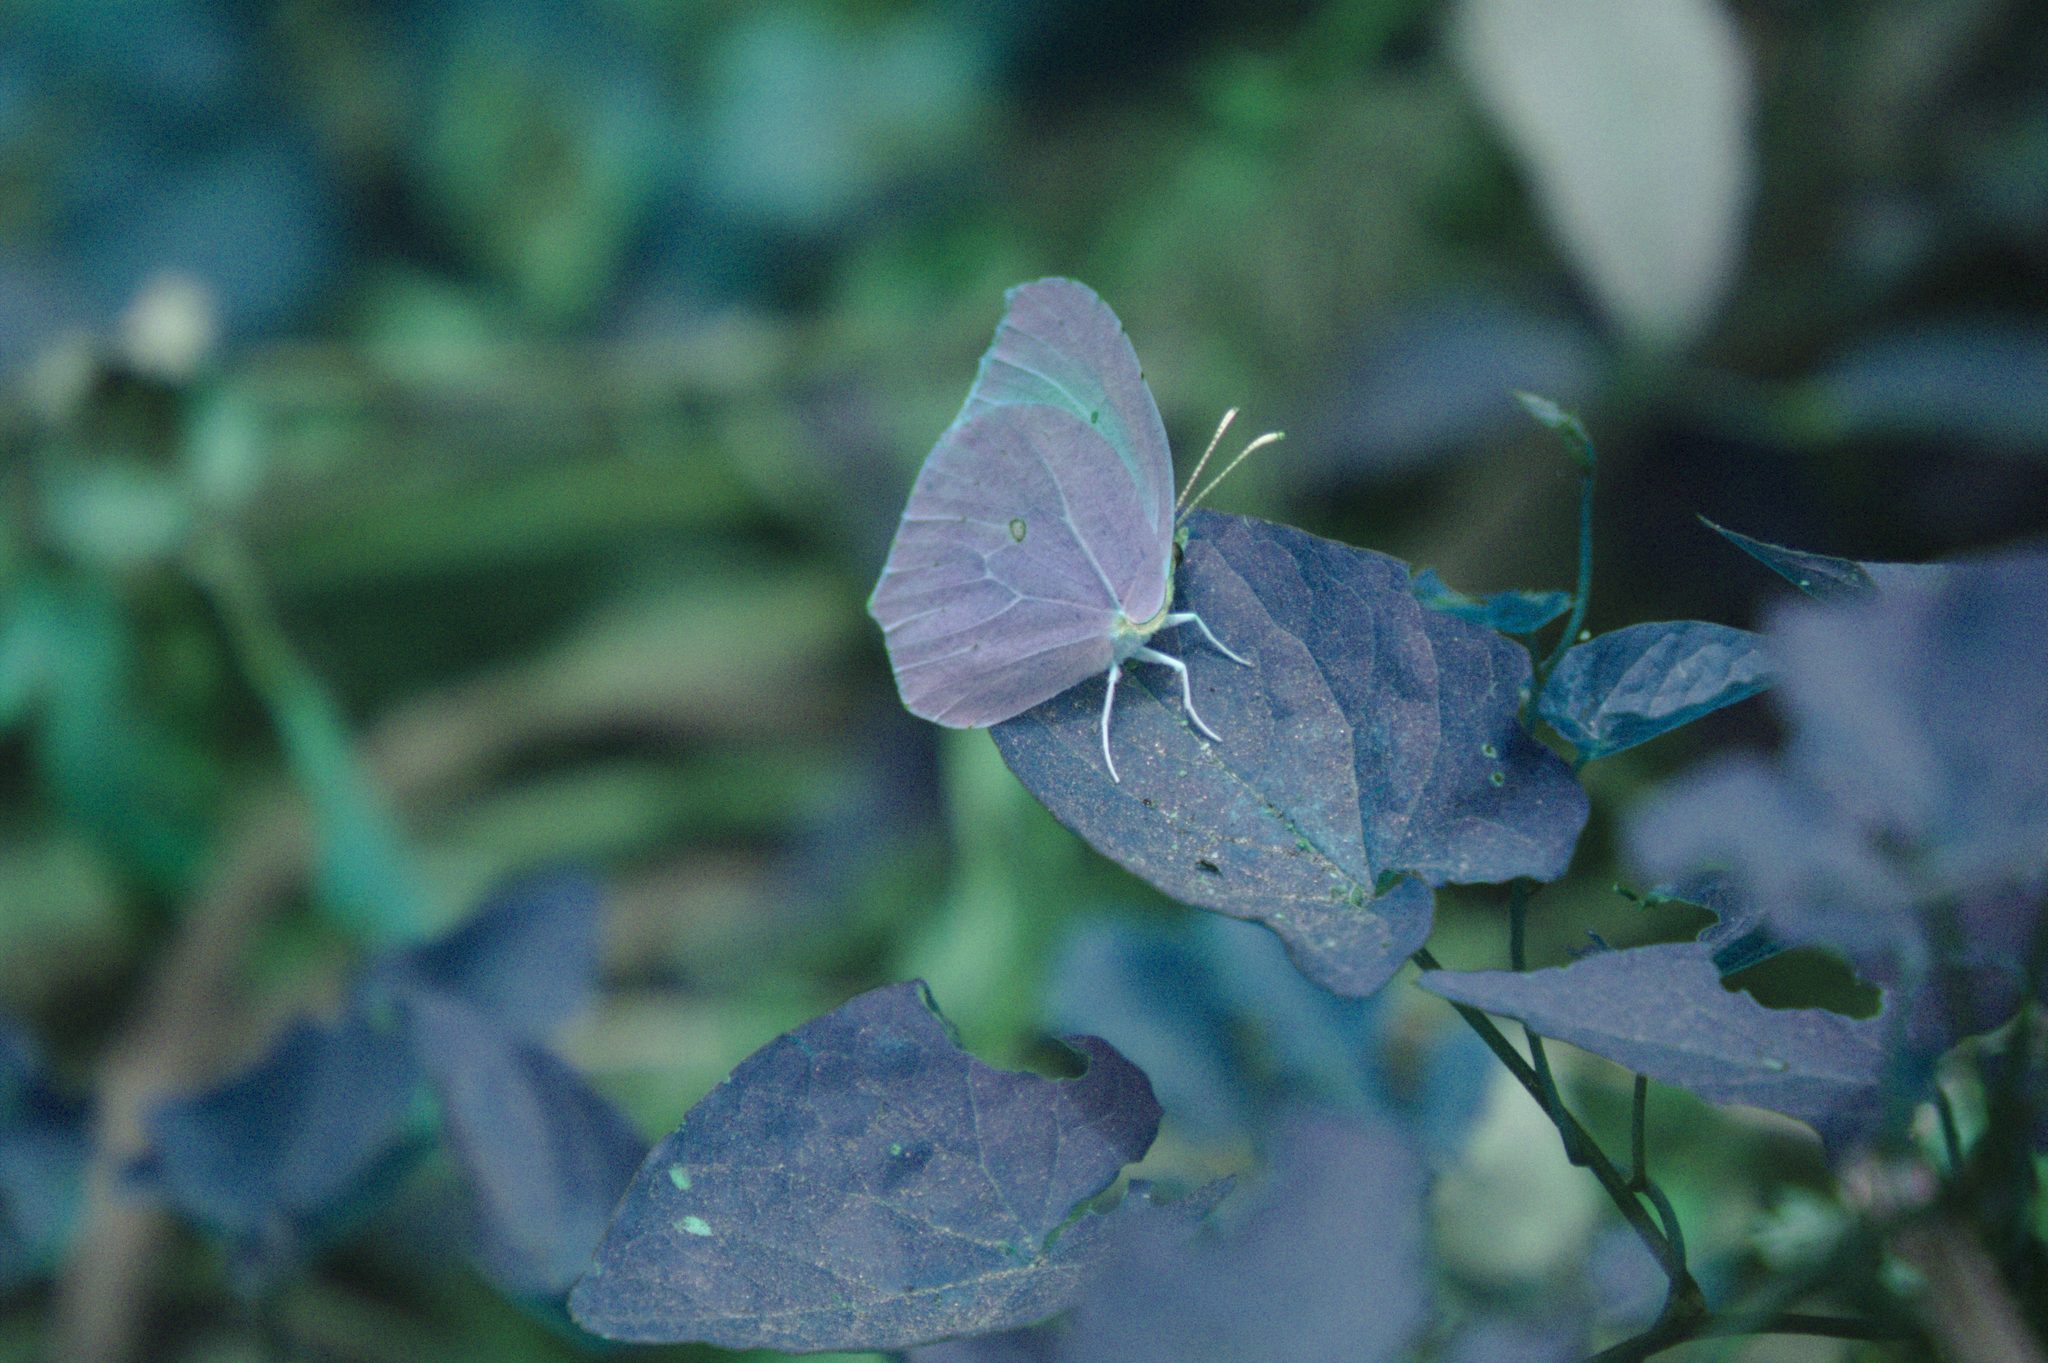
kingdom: Animalia
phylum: Arthropoda
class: Insecta
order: Lepidoptera
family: Pieridae
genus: Gonepteryx
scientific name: Gonepteryx cleopatra
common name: Cleopatra
